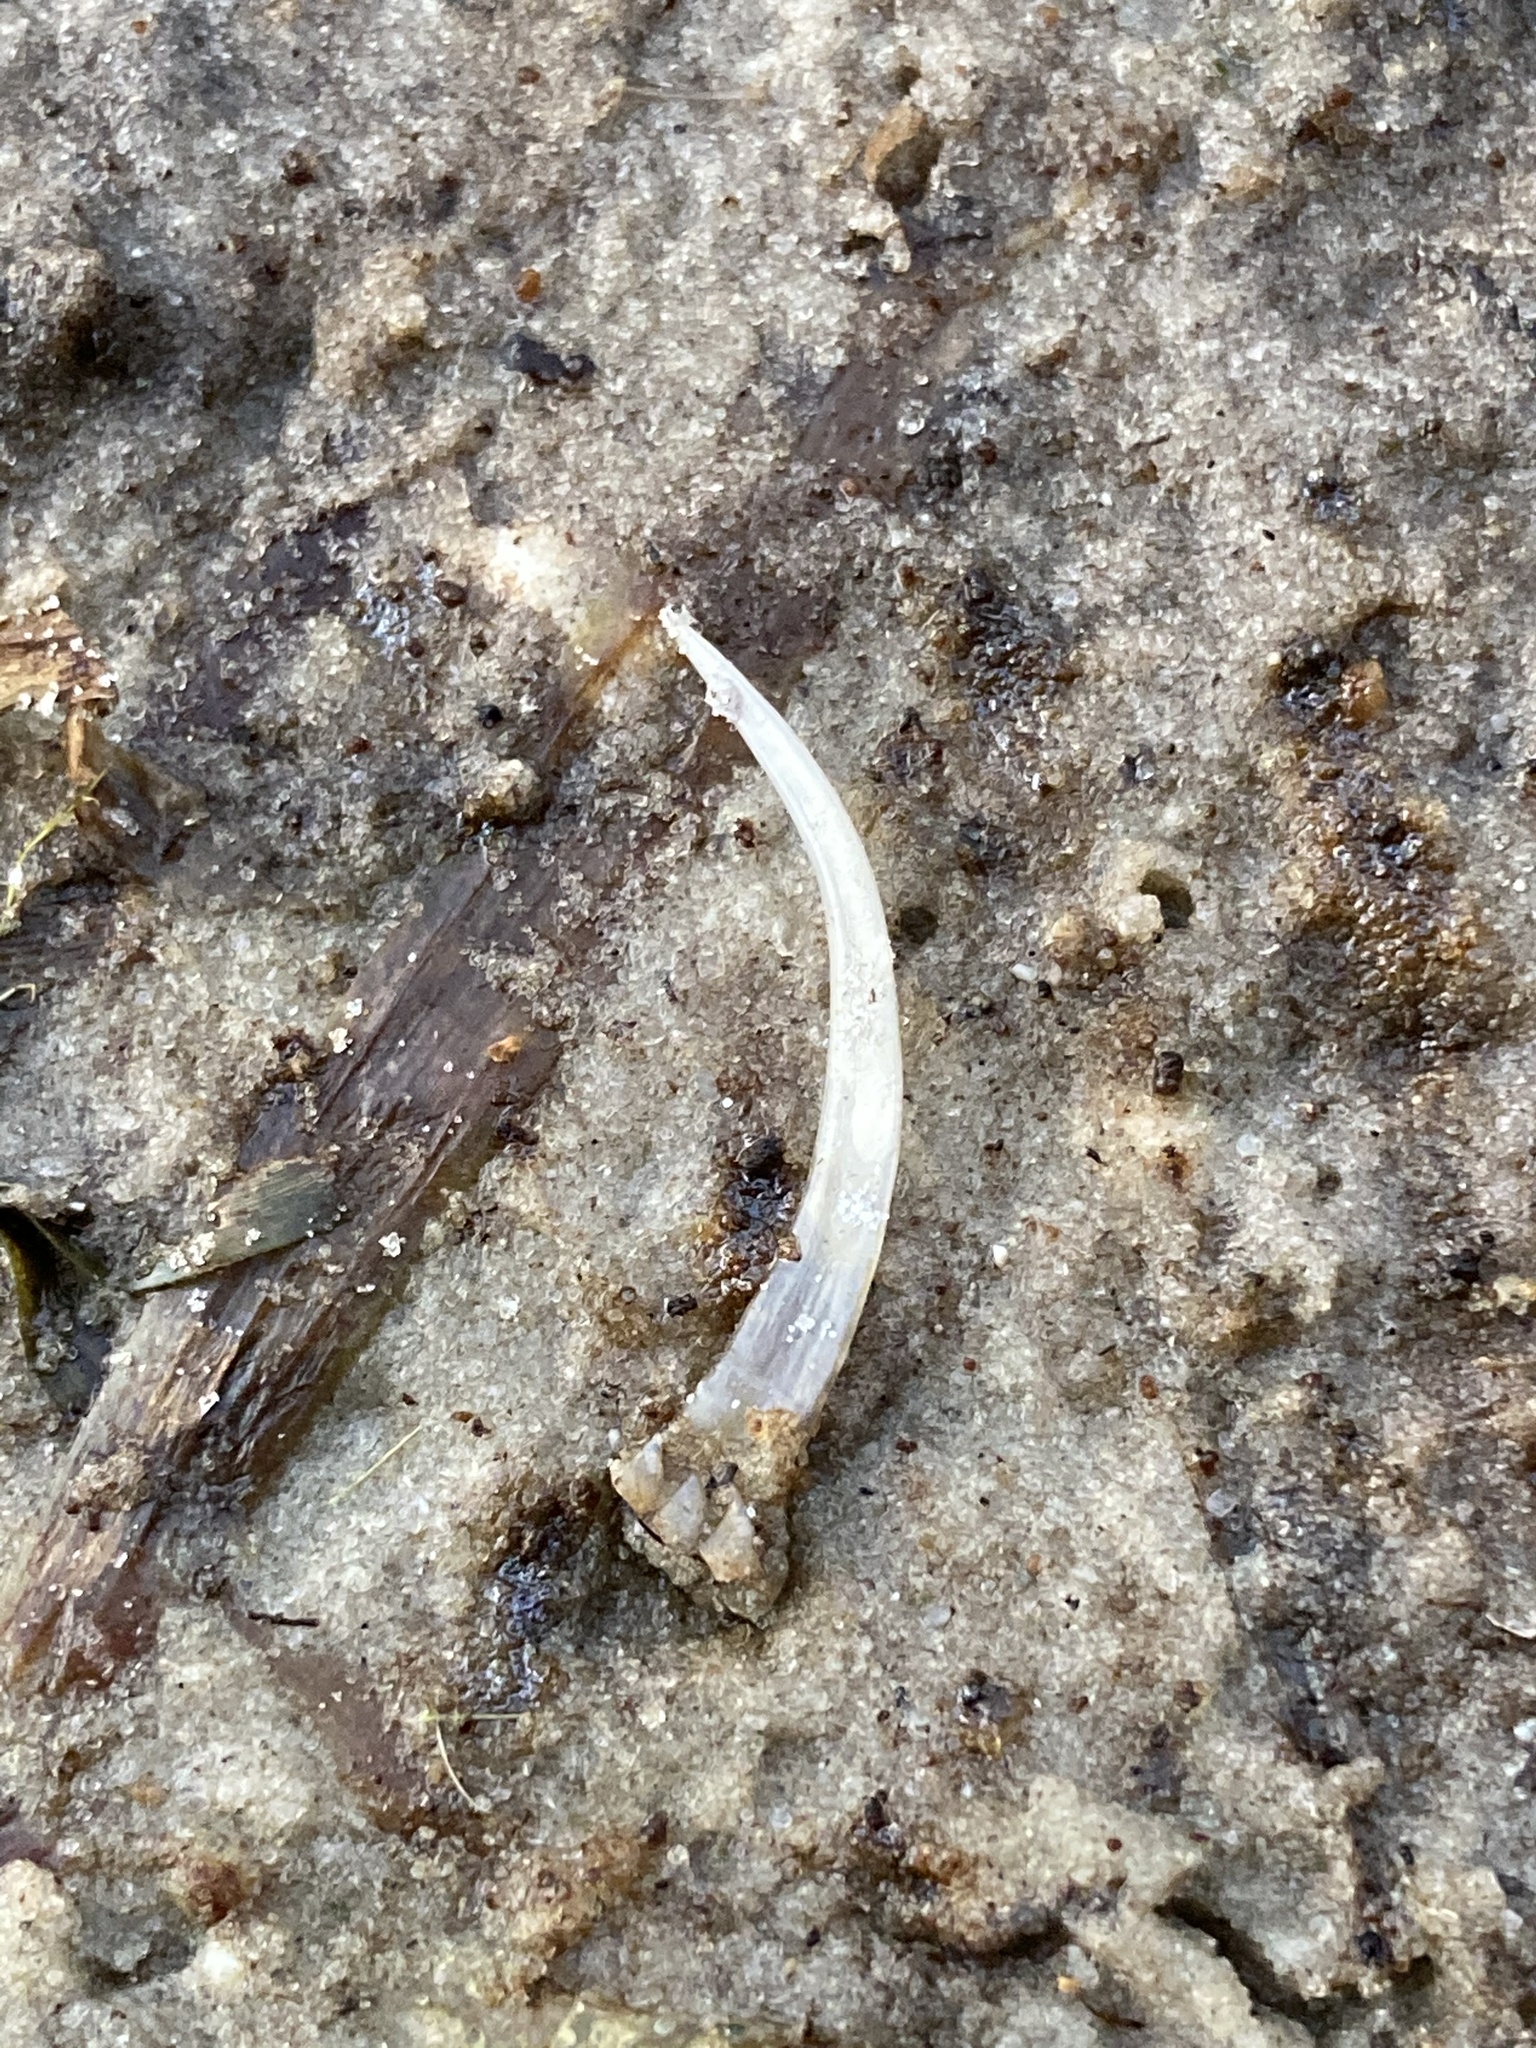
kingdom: Animalia
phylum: Chordata
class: Squamata
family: Iguanidae
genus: Iguana
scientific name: Iguana iguana
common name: Green iguana
